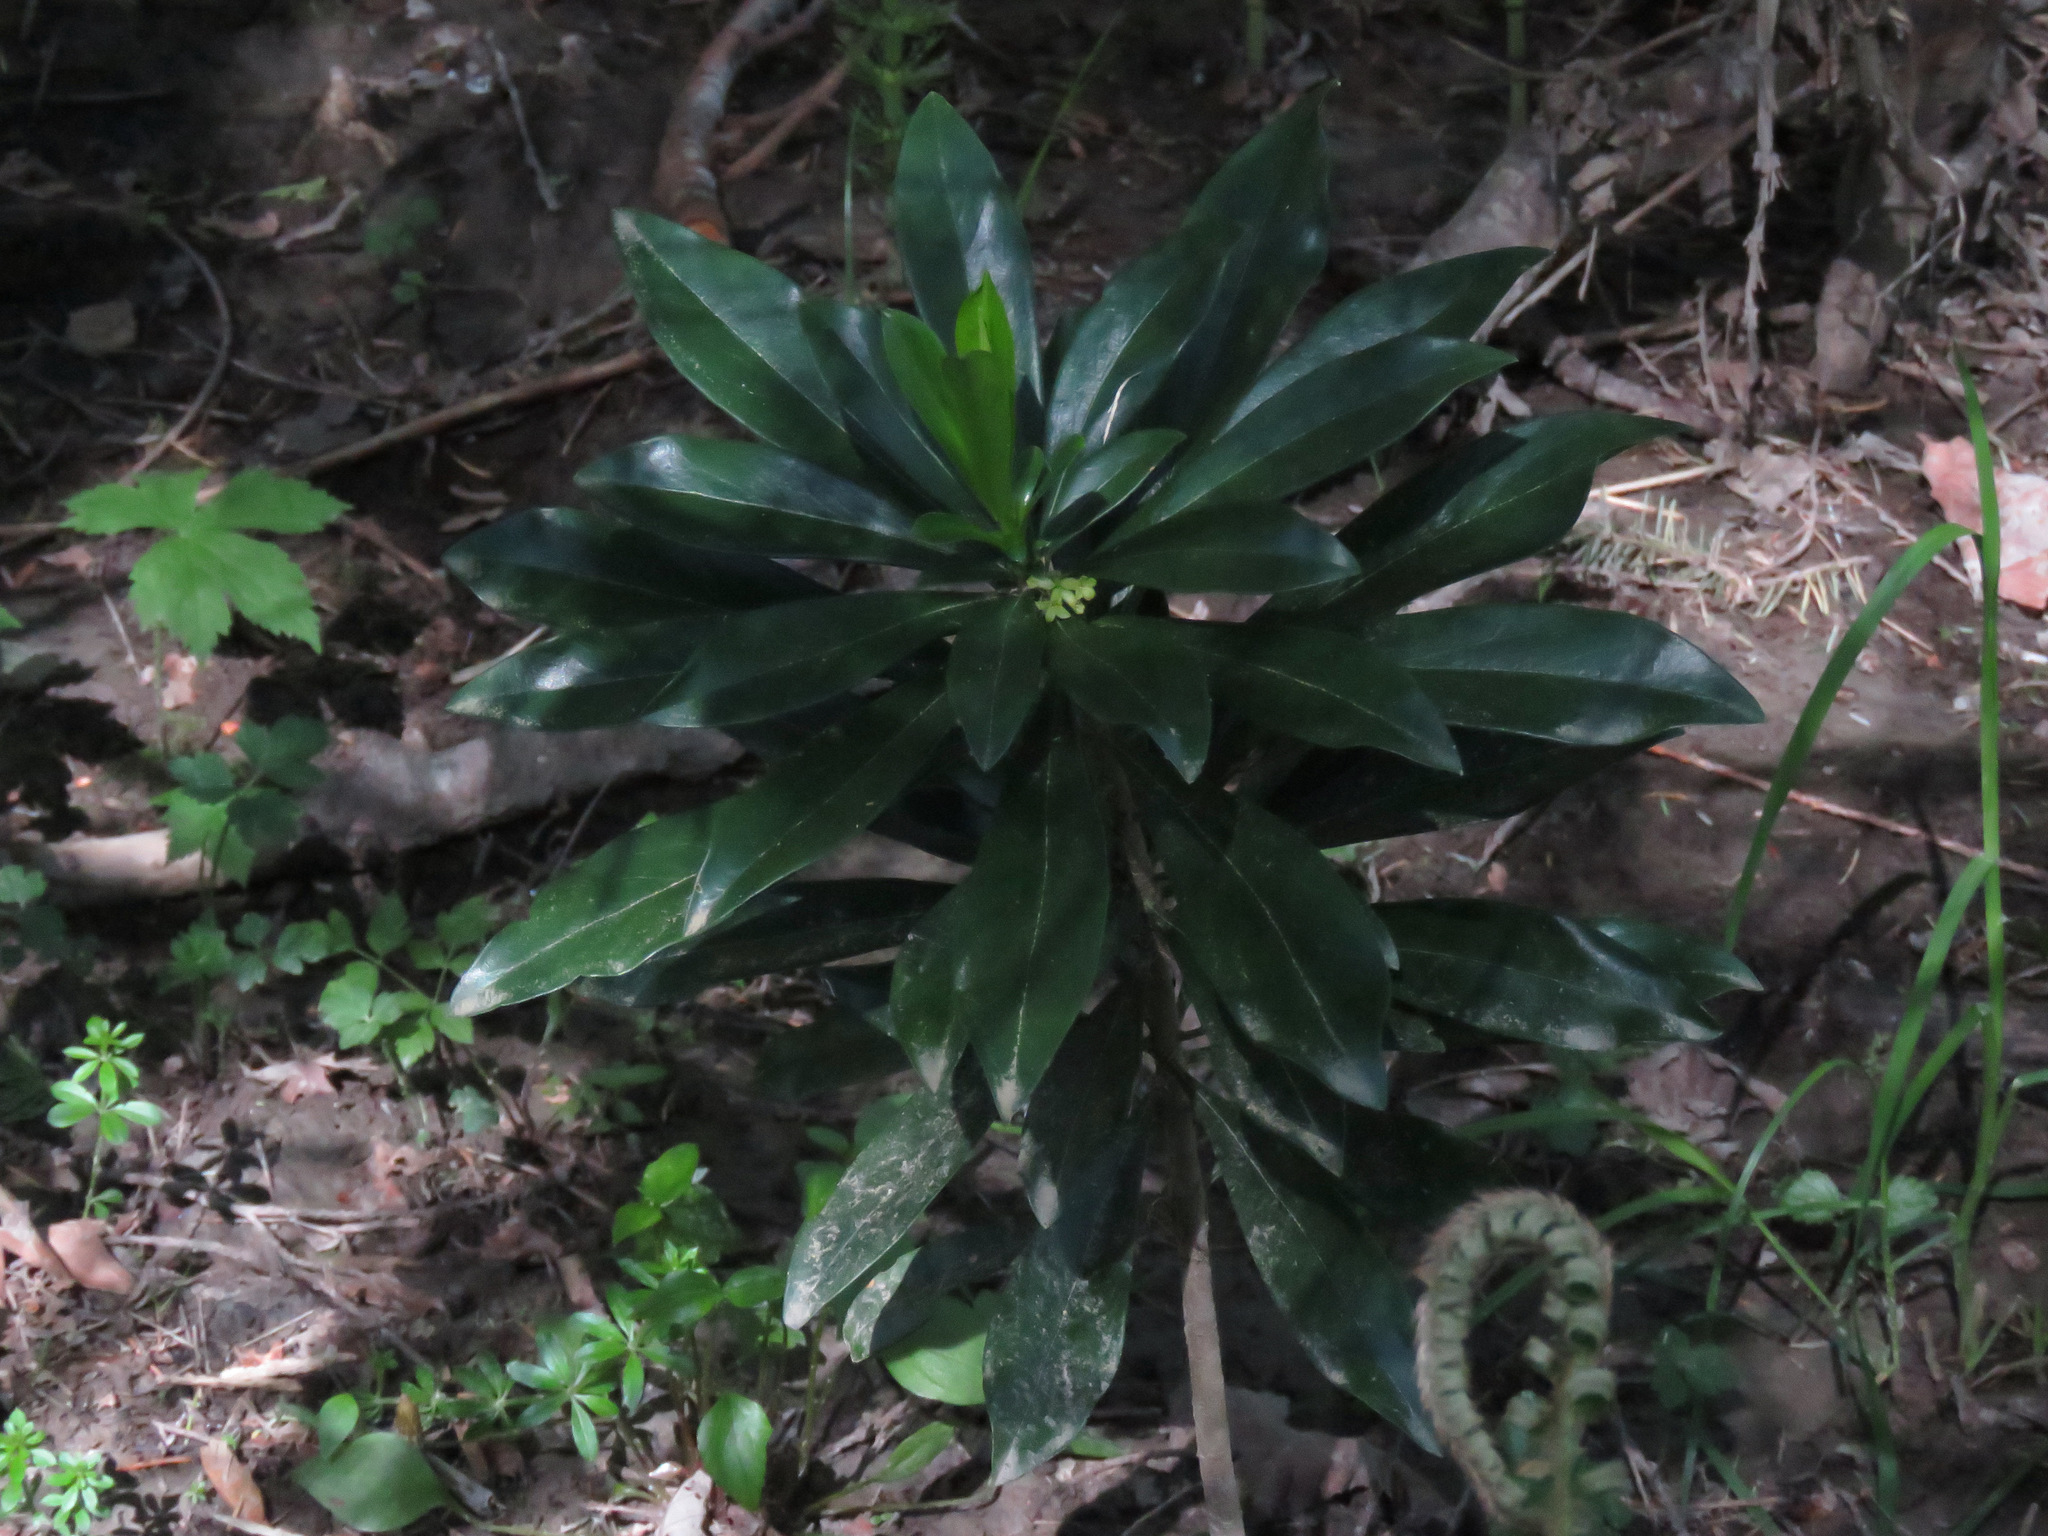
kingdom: Plantae
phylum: Tracheophyta
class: Magnoliopsida
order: Malvales
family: Thymelaeaceae
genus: Daphne
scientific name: Daphne laureola
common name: Spurge-laurel
